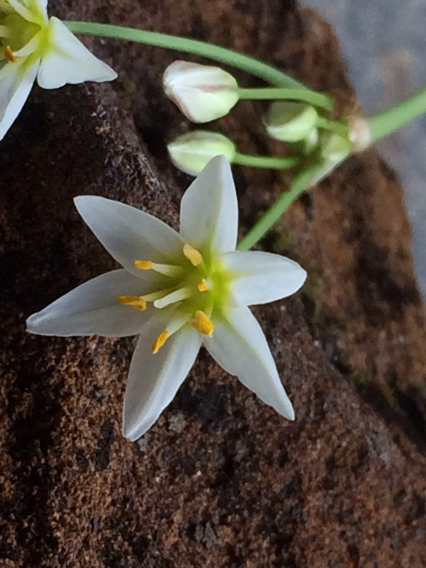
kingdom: Plantae
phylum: Tracheophyta
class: Liliopsida
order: Asparagales
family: Amaryllidaceae
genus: Nothoscordum
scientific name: Nothoscordum bivalve
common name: Crow-poison
